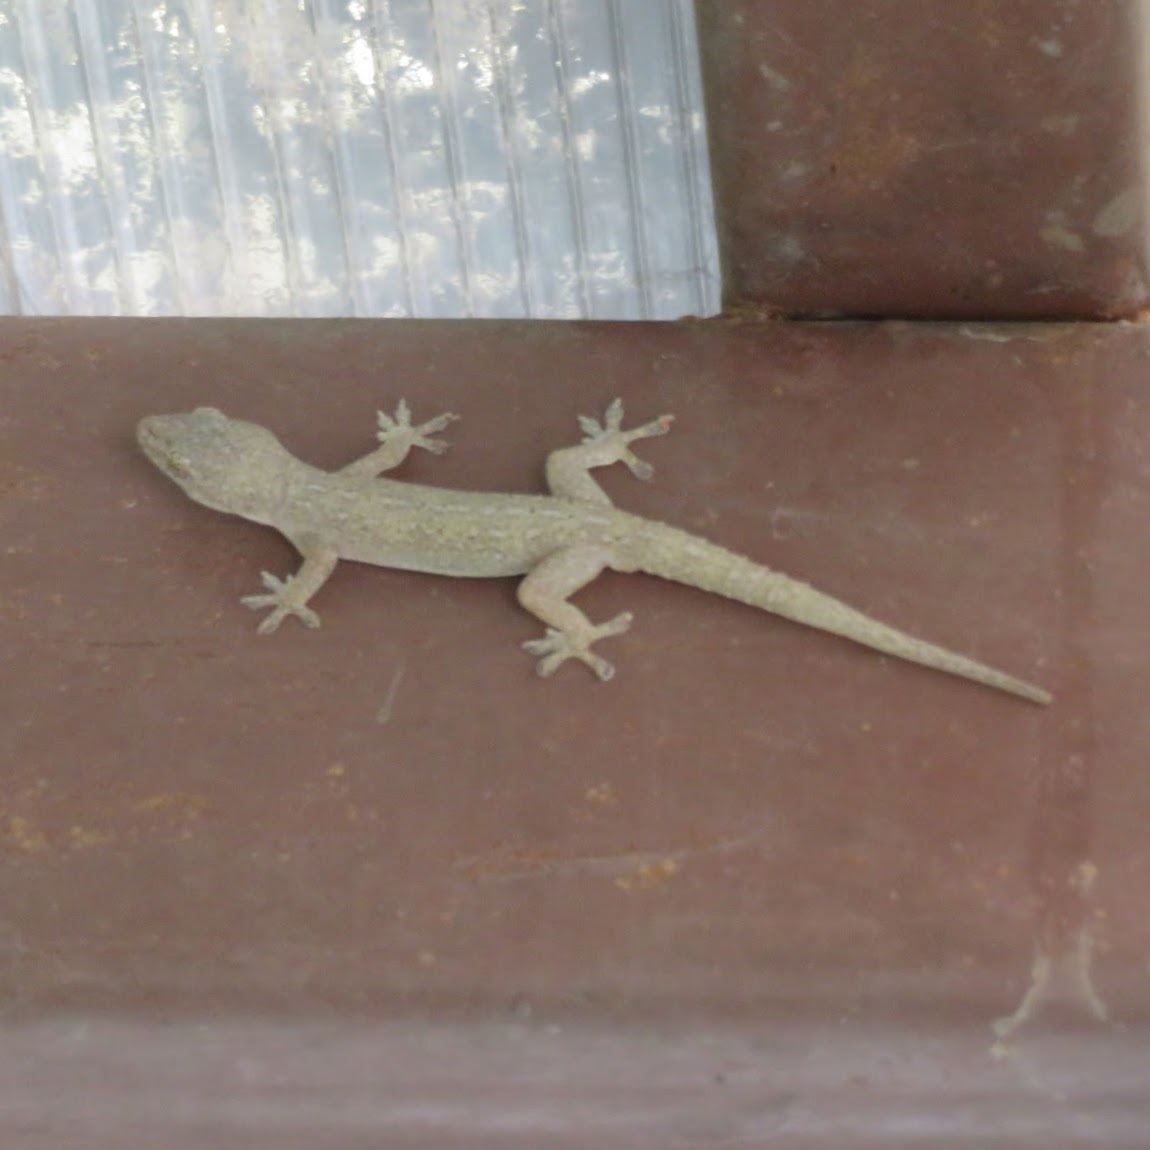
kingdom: Animalia
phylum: Chordata
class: Squamata
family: Gekkonidae
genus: Hemidactylus
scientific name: Hemidactylus frenatus
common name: Common house gecko
